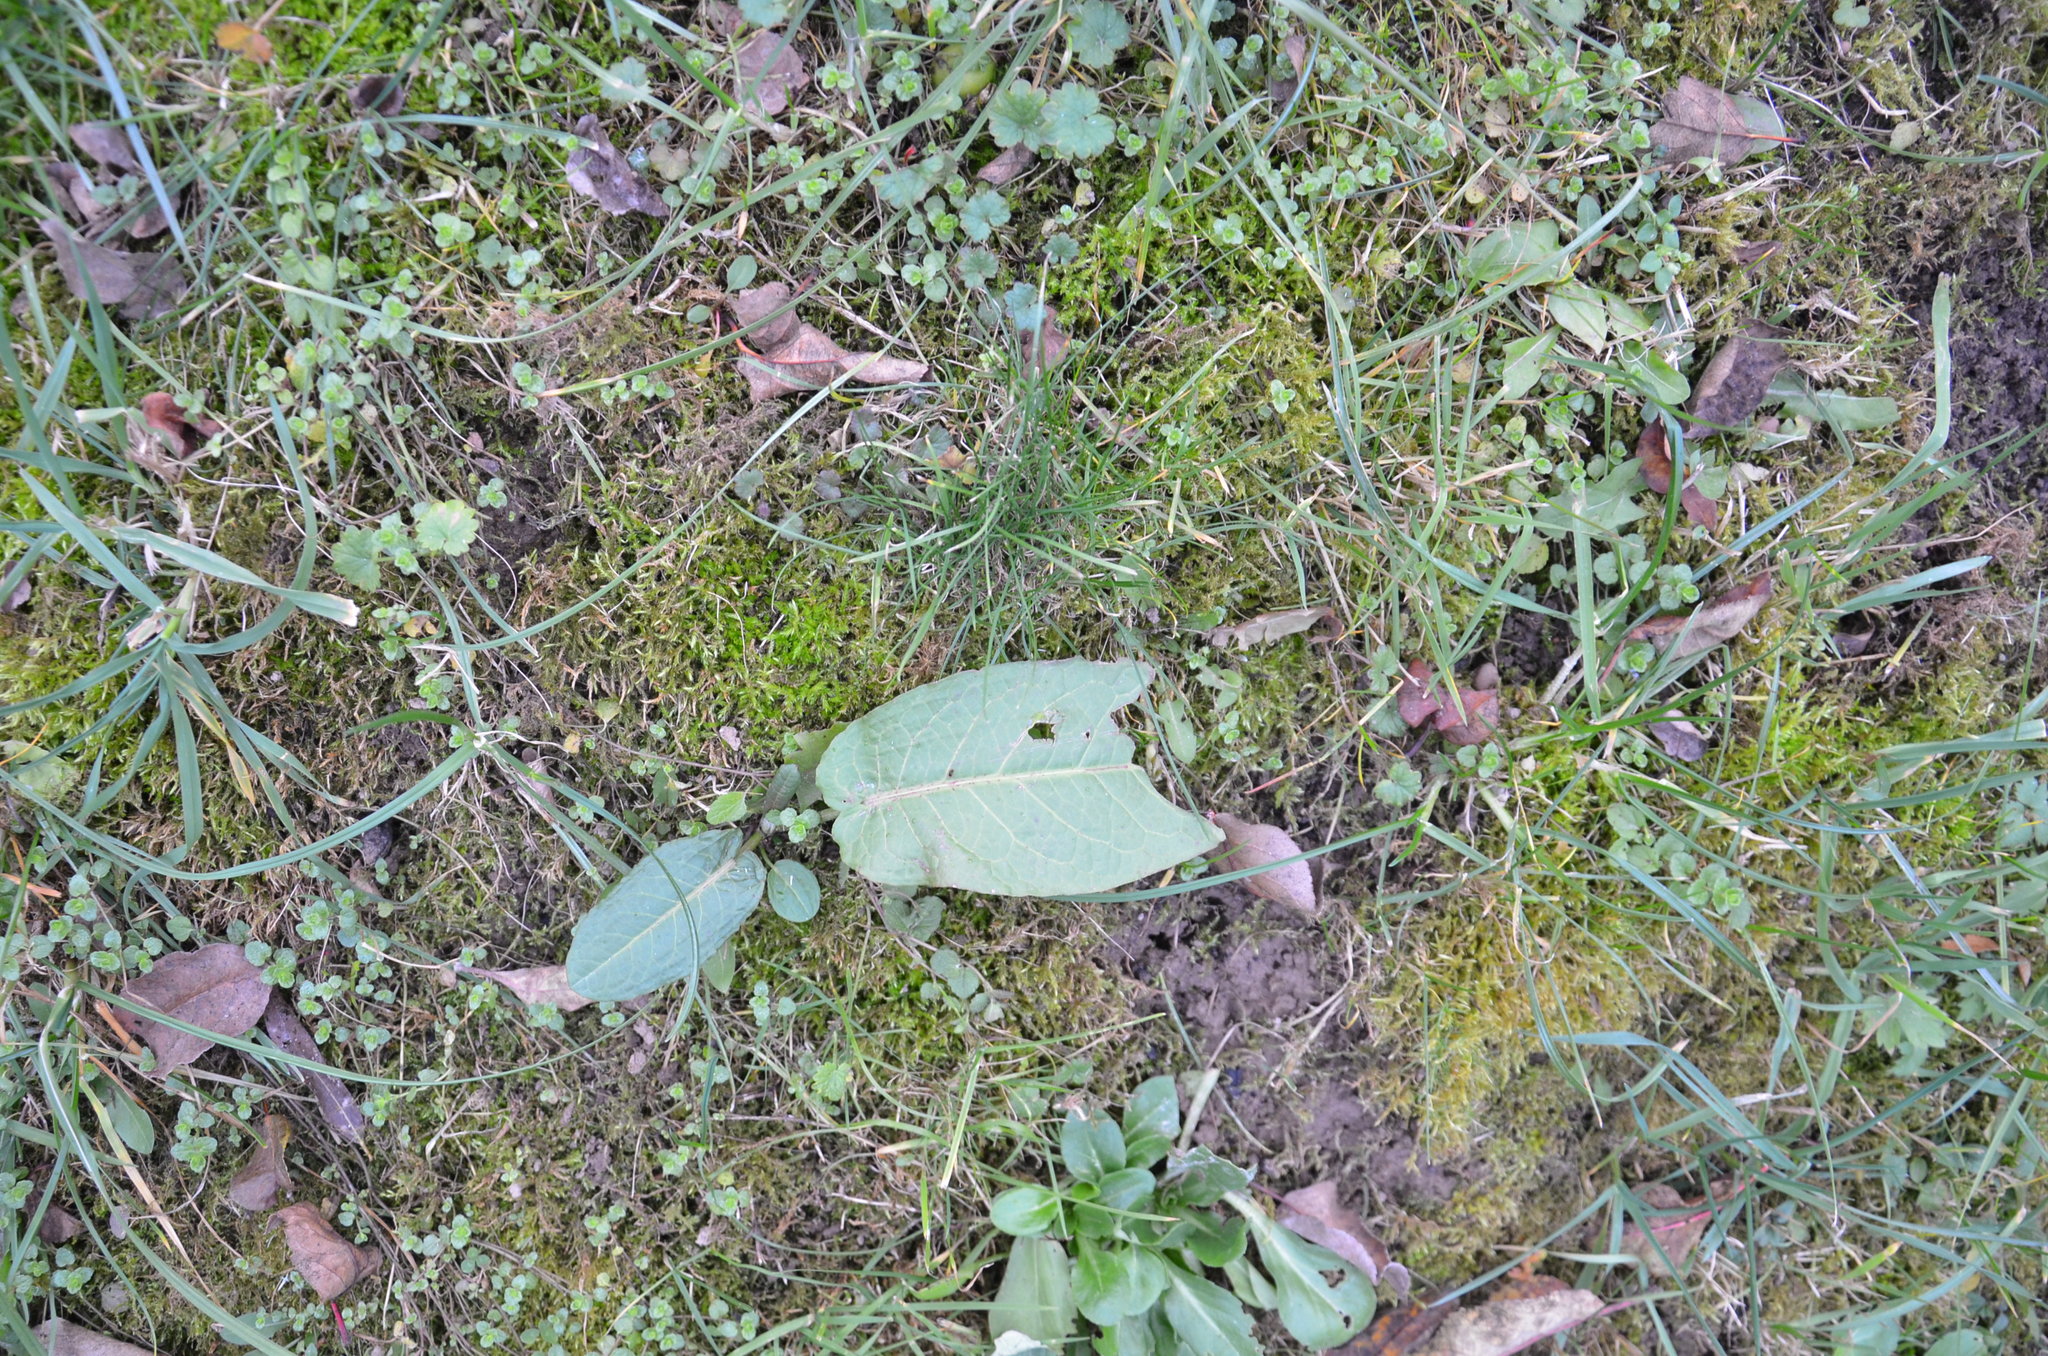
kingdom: Plantae
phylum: Tracheophyta
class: Magnoliopsida
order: Caryophyllales
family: Polygonaceae
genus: Rumex
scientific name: Rumex obtusifolius
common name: Bitter dock
